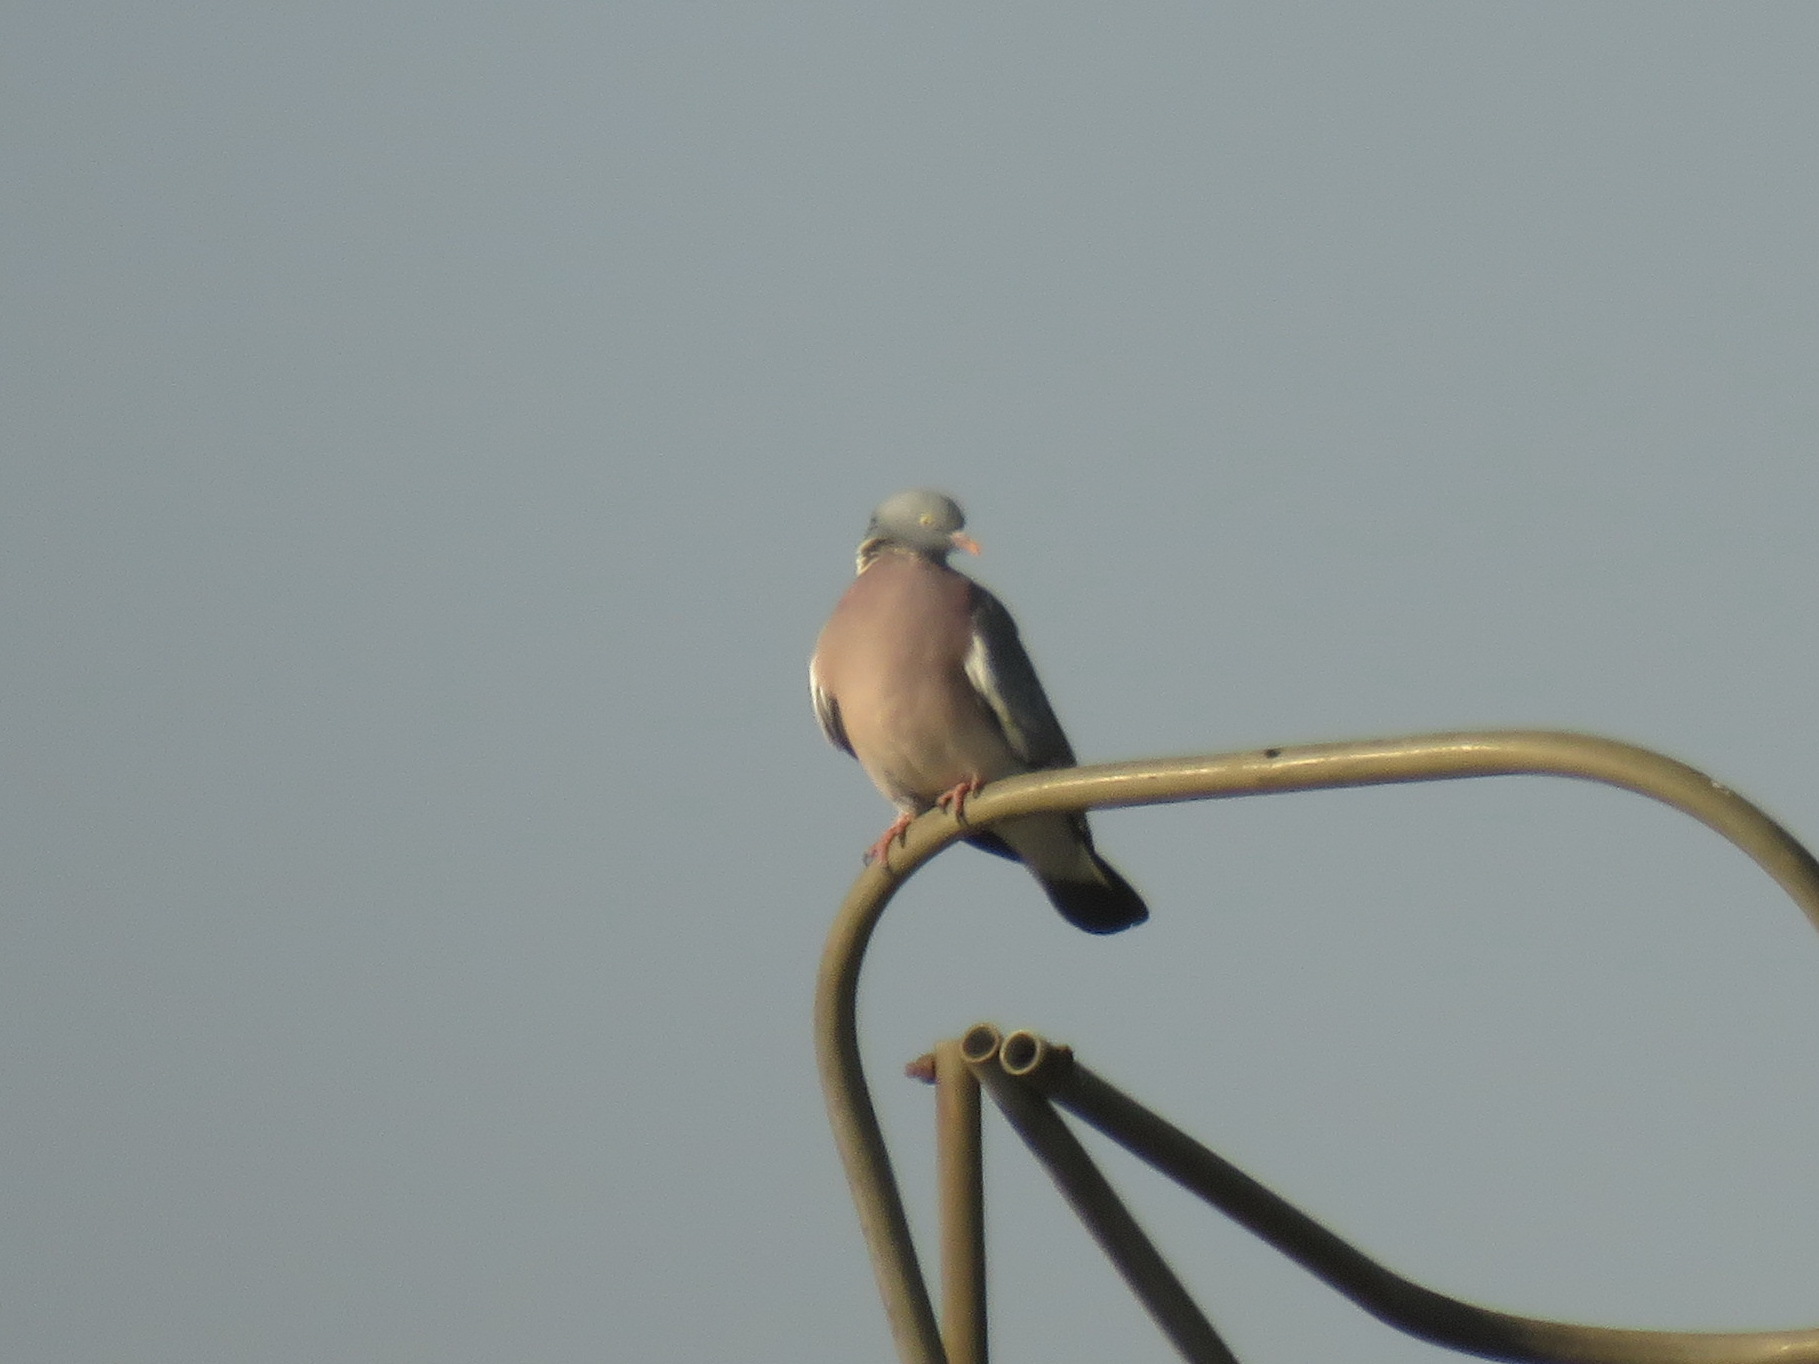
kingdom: Animalia
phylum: Chordata
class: Aves
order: Columbiformes
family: Columbidae
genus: Columba
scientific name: Columba palumbus
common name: Common wood pigeon
